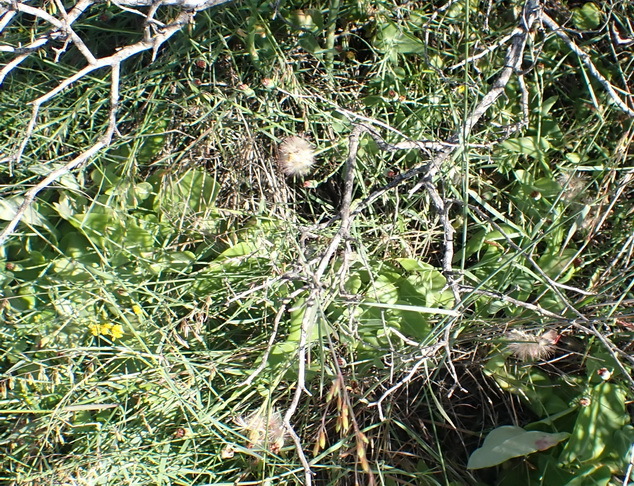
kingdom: Plantae
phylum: Tracheophyta
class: Magnoliopsida
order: Asterales
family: Asteraceae
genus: Othonna
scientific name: Othonna undulosa
